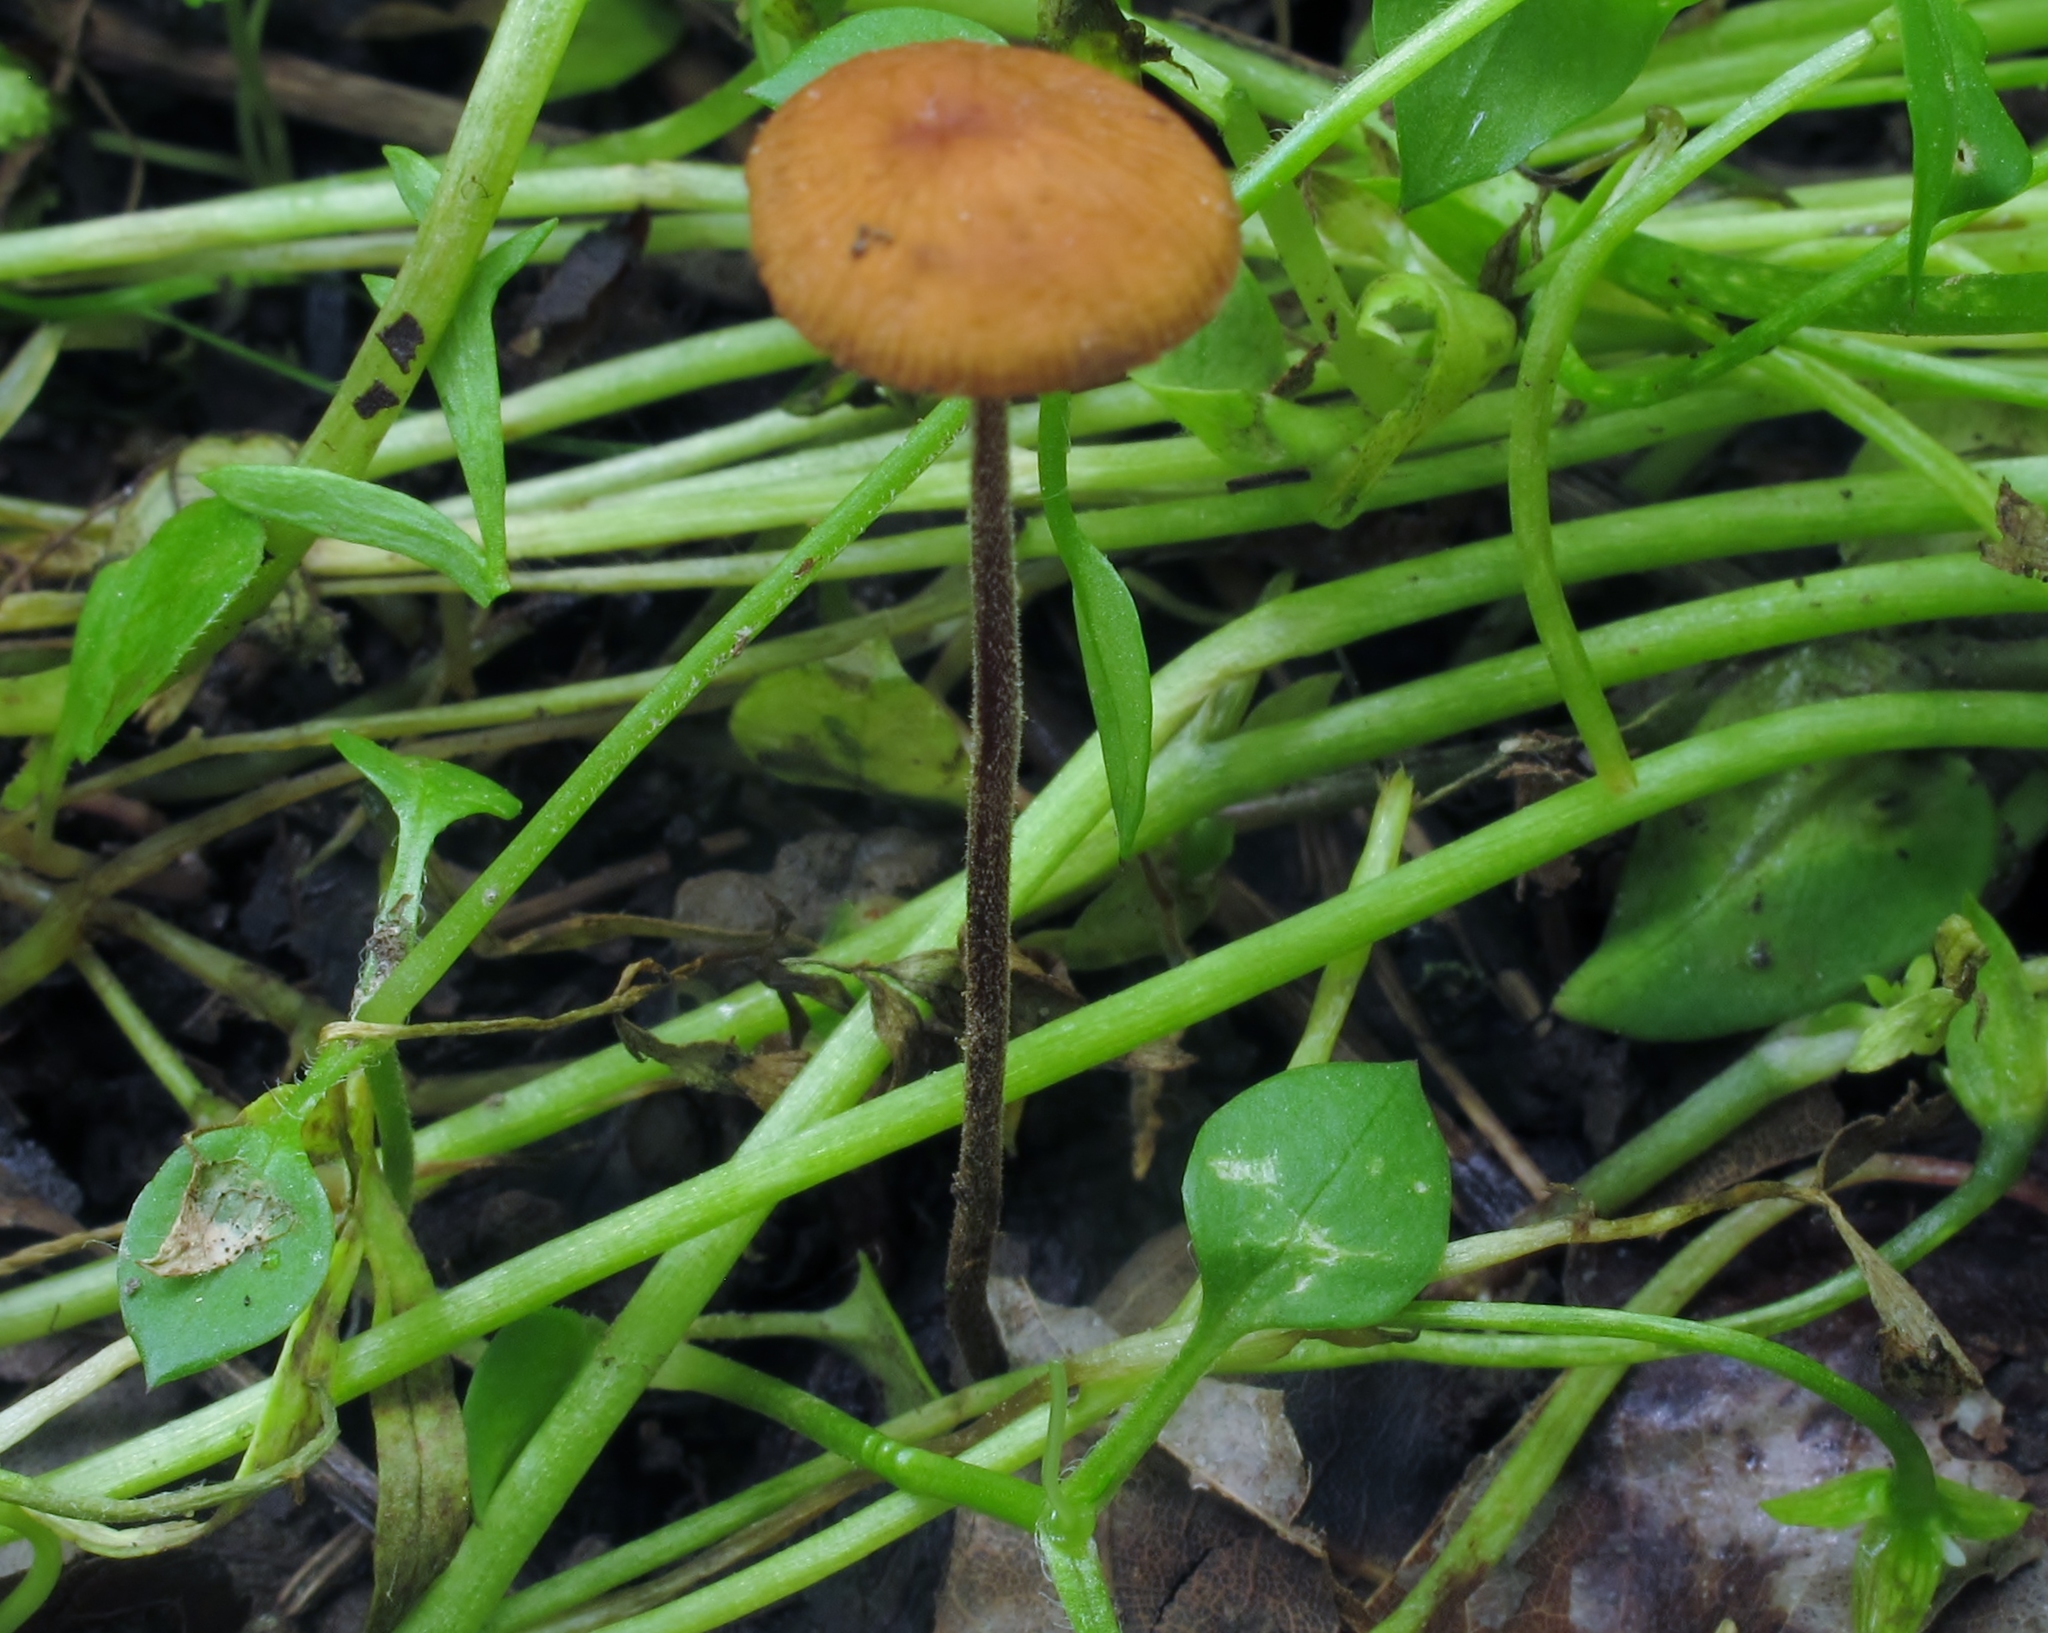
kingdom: Fungi
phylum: Basidiomycota
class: Agaricomycetes
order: Agaricales
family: Physalacriaceae
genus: Rhizomarasmius
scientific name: Rhizomarasmius pyrrhocephalus
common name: Hairy long stem marasmius
